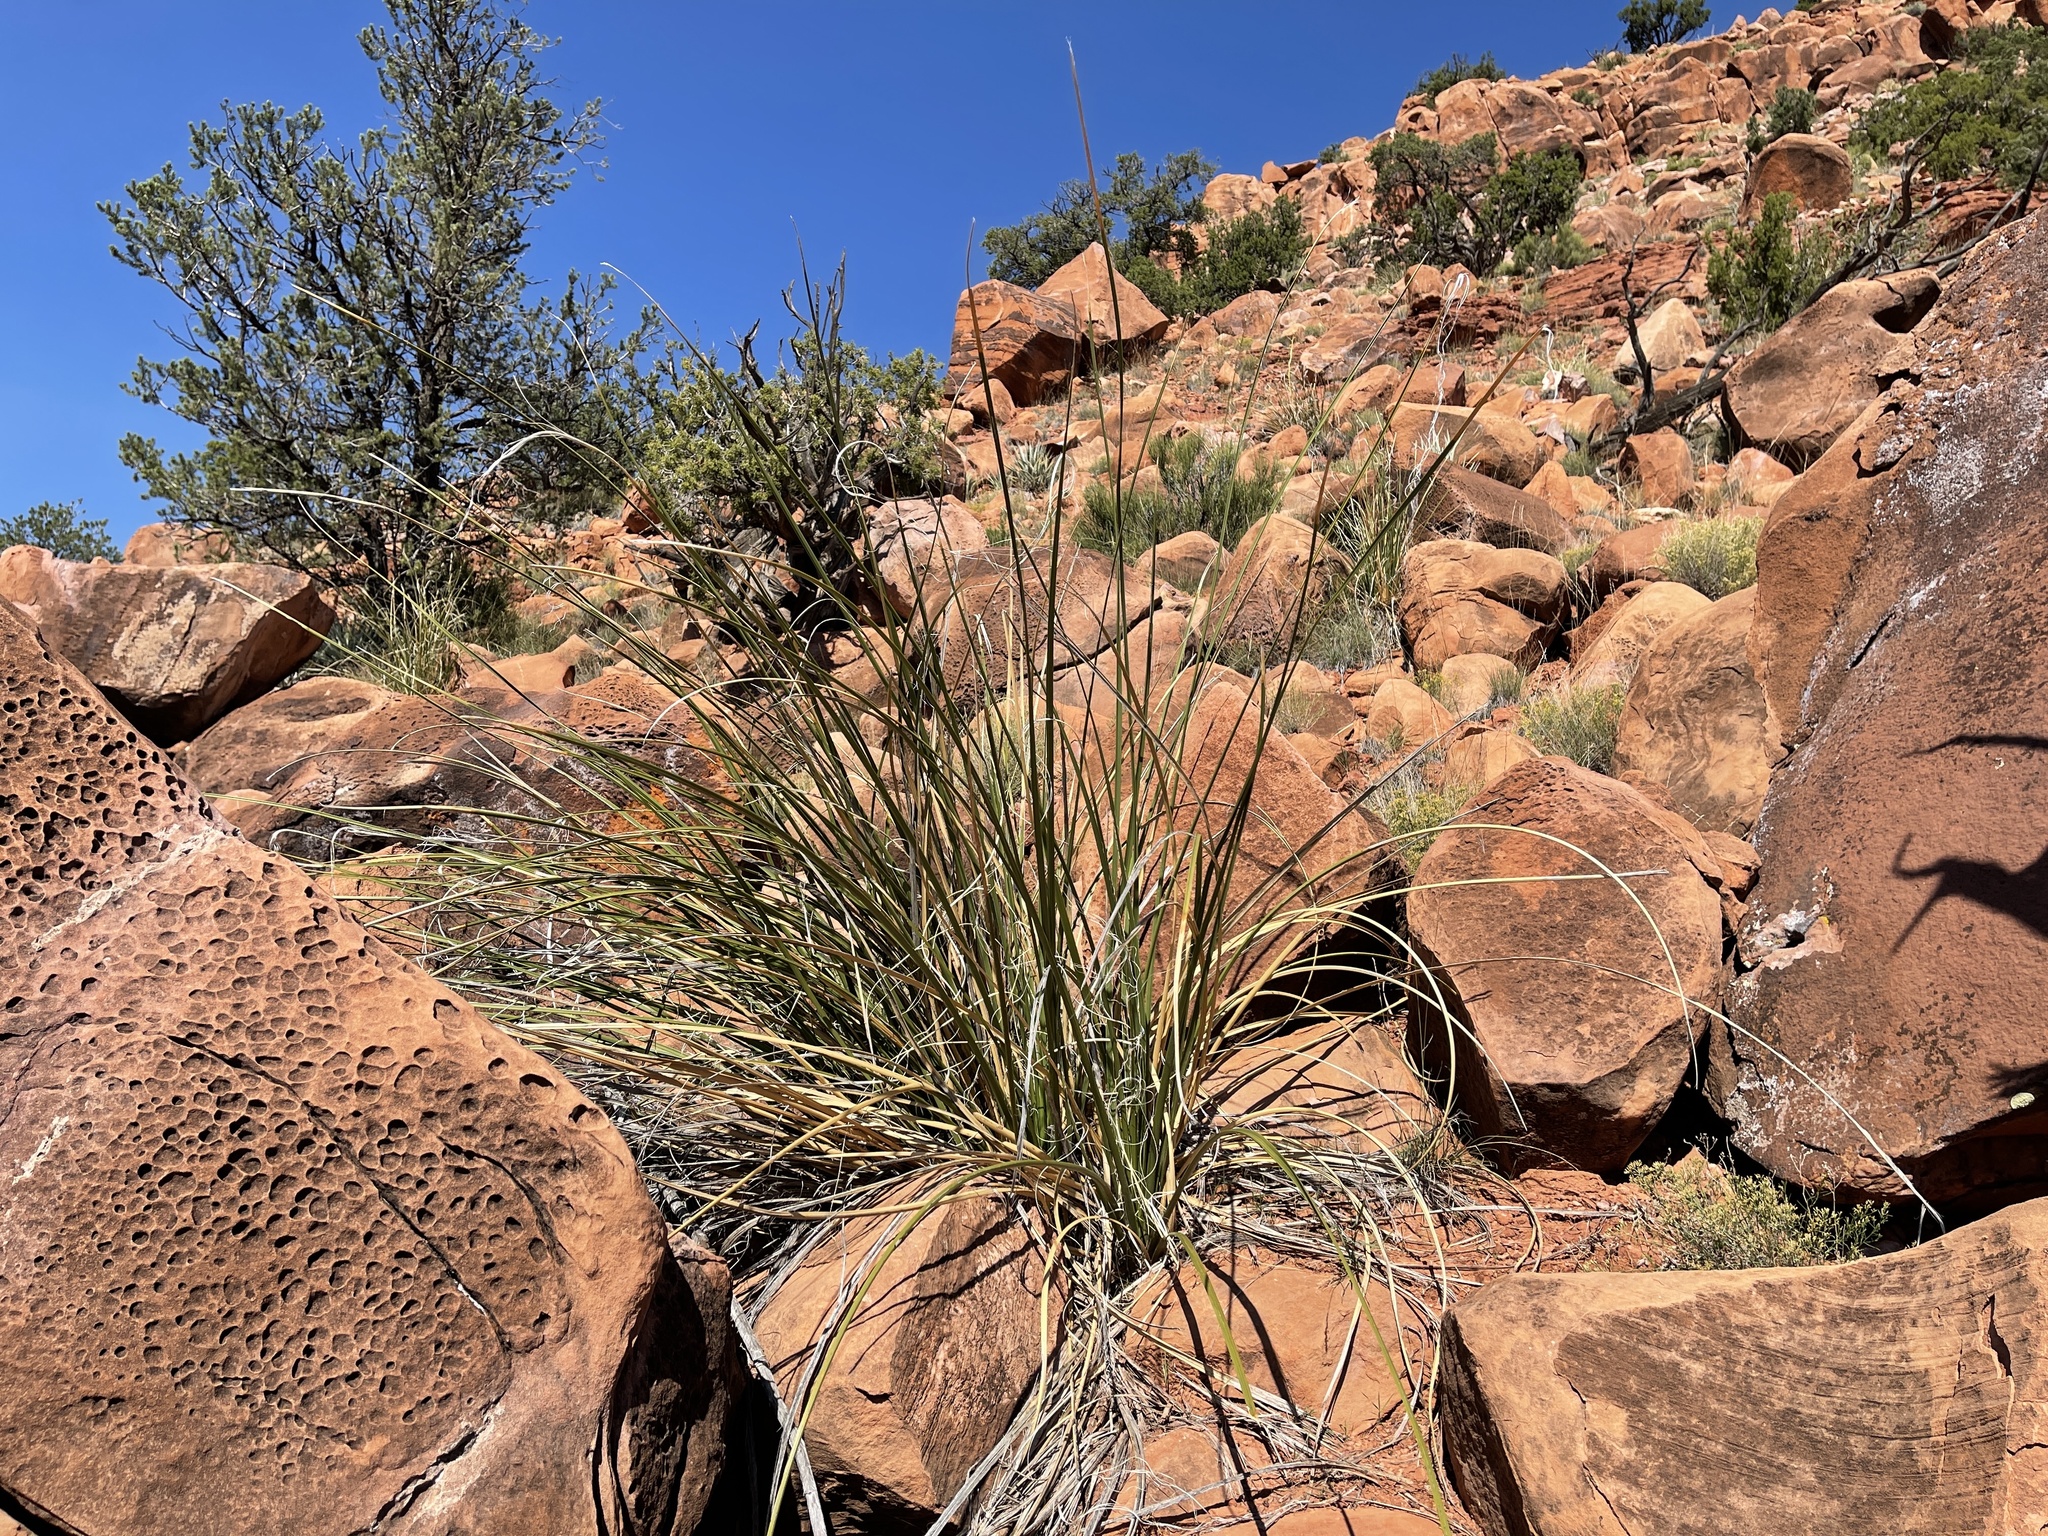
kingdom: Plantae
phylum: Tracheophyta
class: Liliopsida
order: Asparagales
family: Asparagaceae
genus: Nolina
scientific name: Nolina microcarpa
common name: Bear-grass
